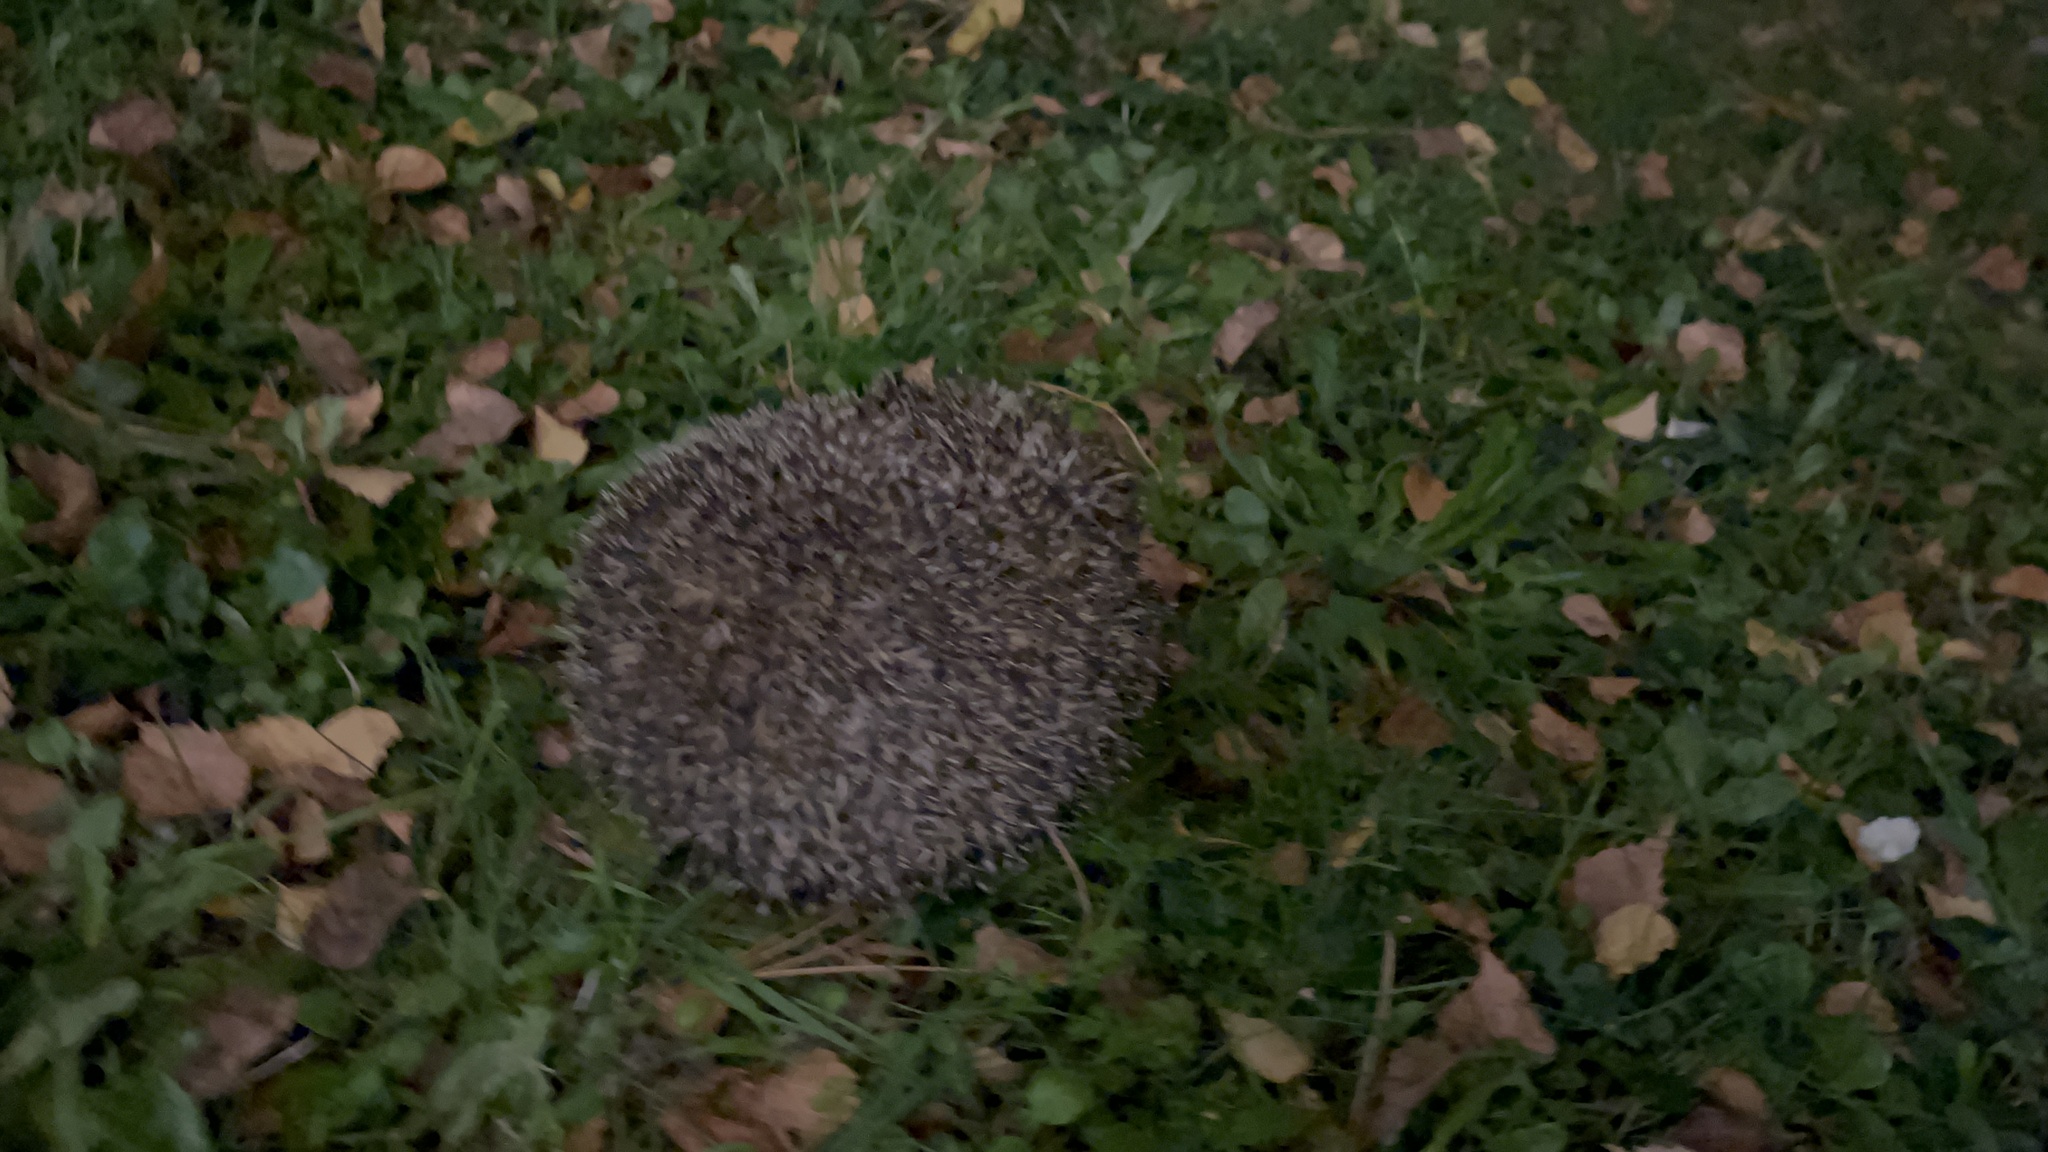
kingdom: Animalia
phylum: Chordata
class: Mammalia
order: Erinaceomorpha
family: Erinaceidae
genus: Erinaceus
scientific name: Erinaceus europaeus
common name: West european hedgehog
